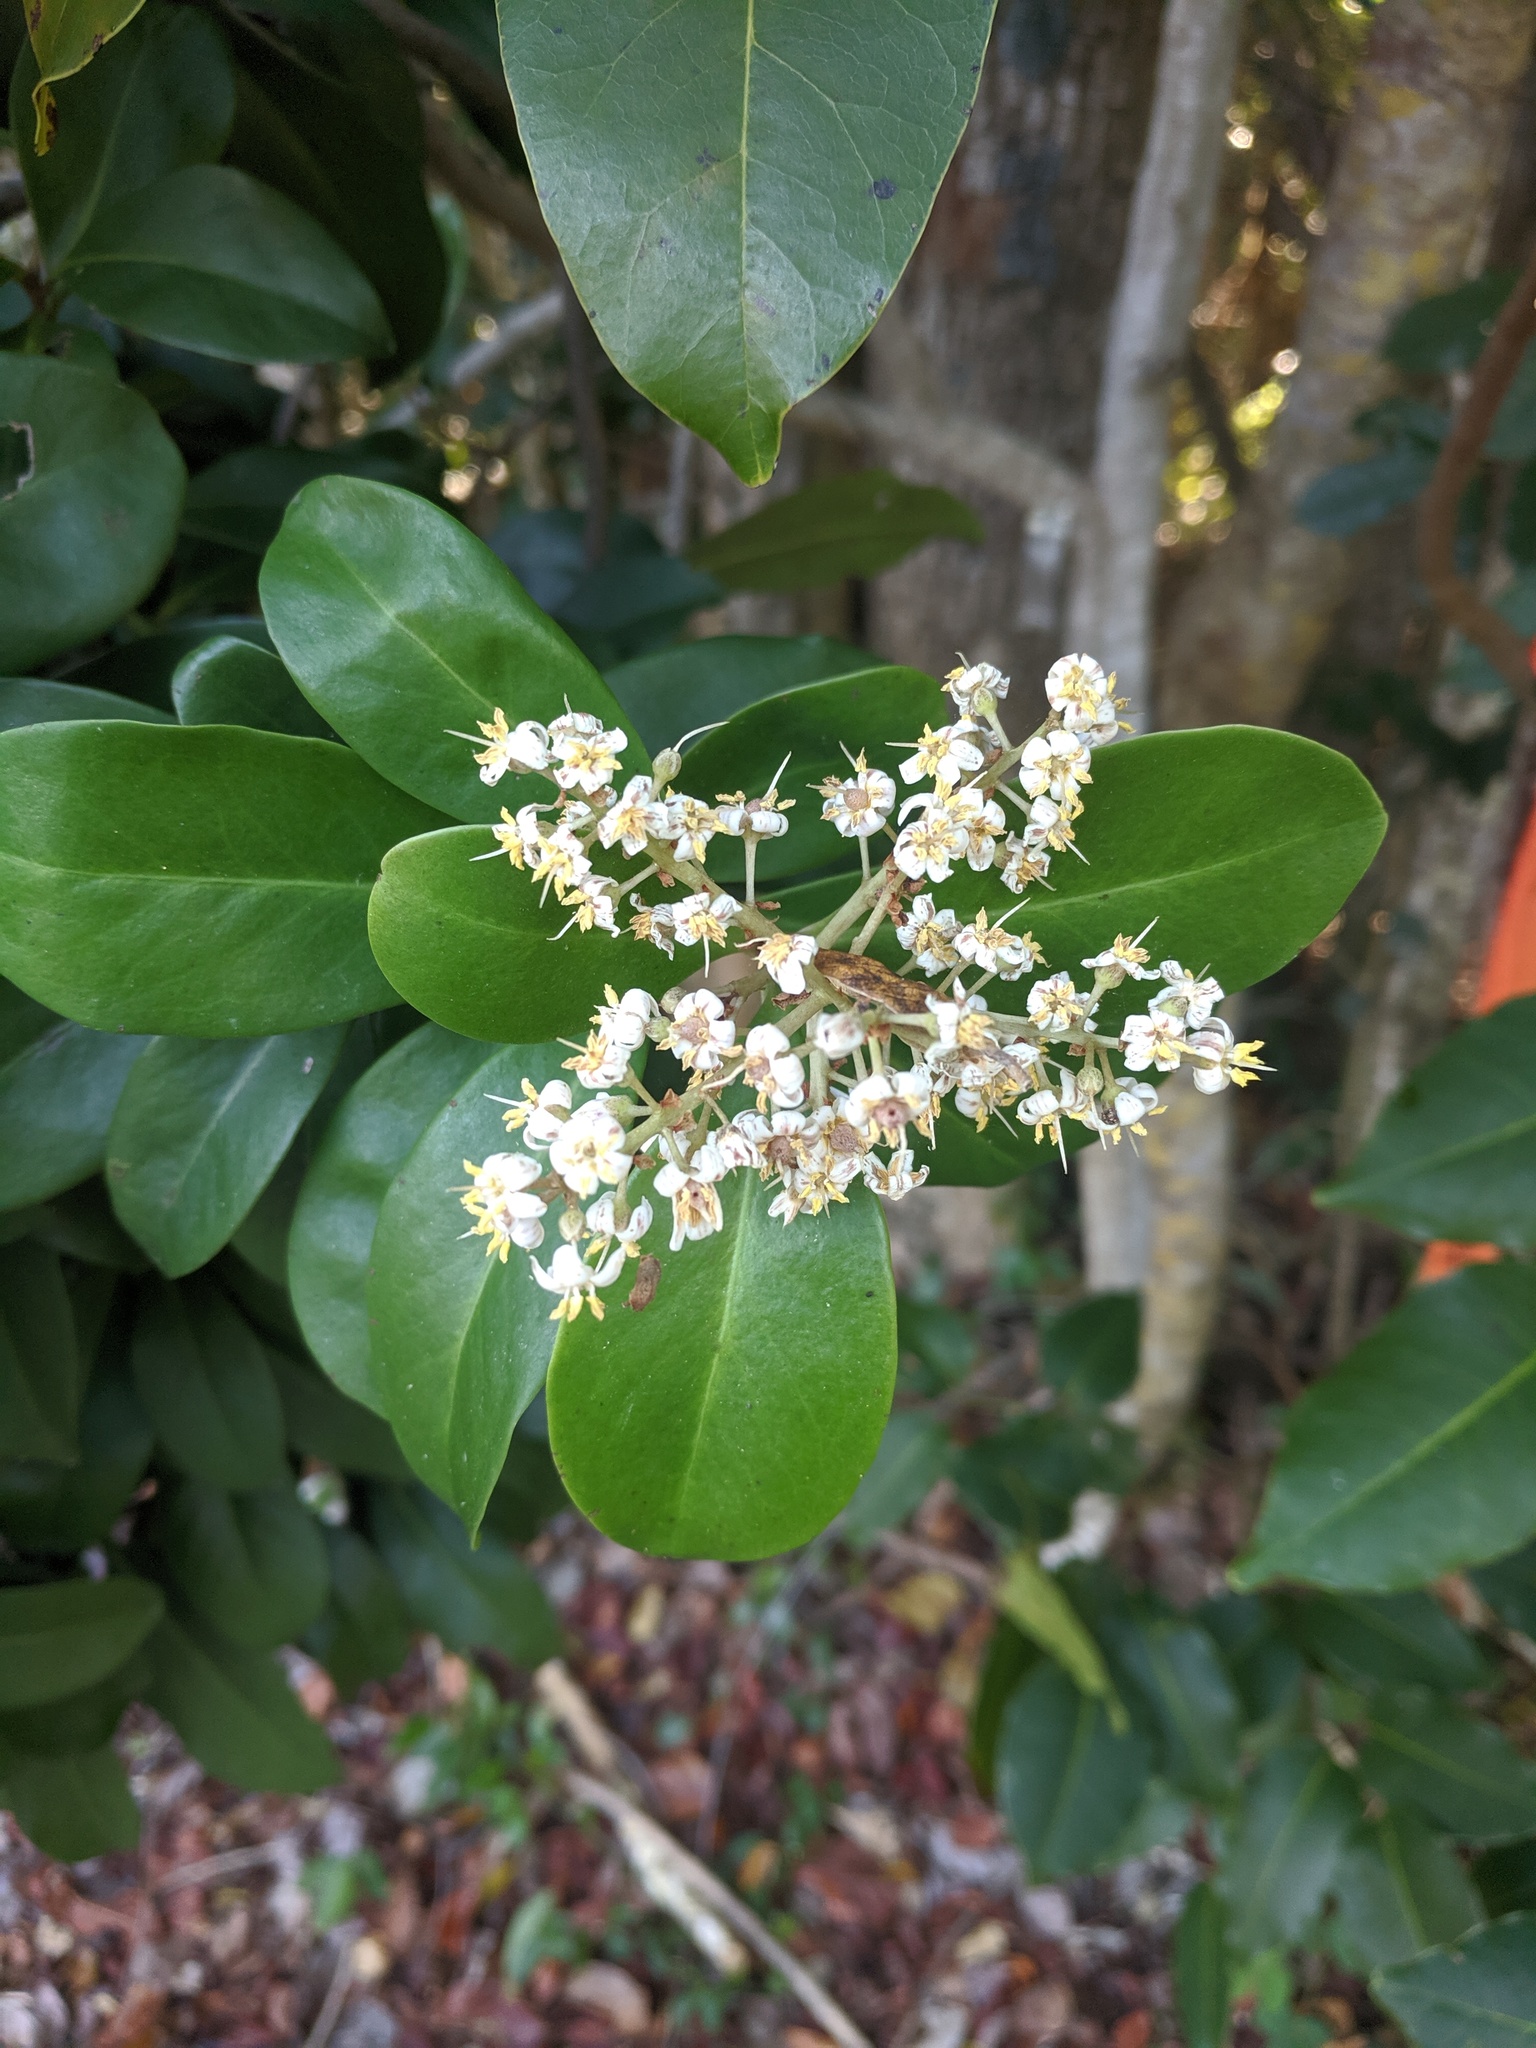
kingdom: Plantae
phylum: Tracheophyta
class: Magnoliopsida
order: Ericales
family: Primulaceae
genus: Ardisia
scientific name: Ardisia escallonioides
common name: Island marlberry
